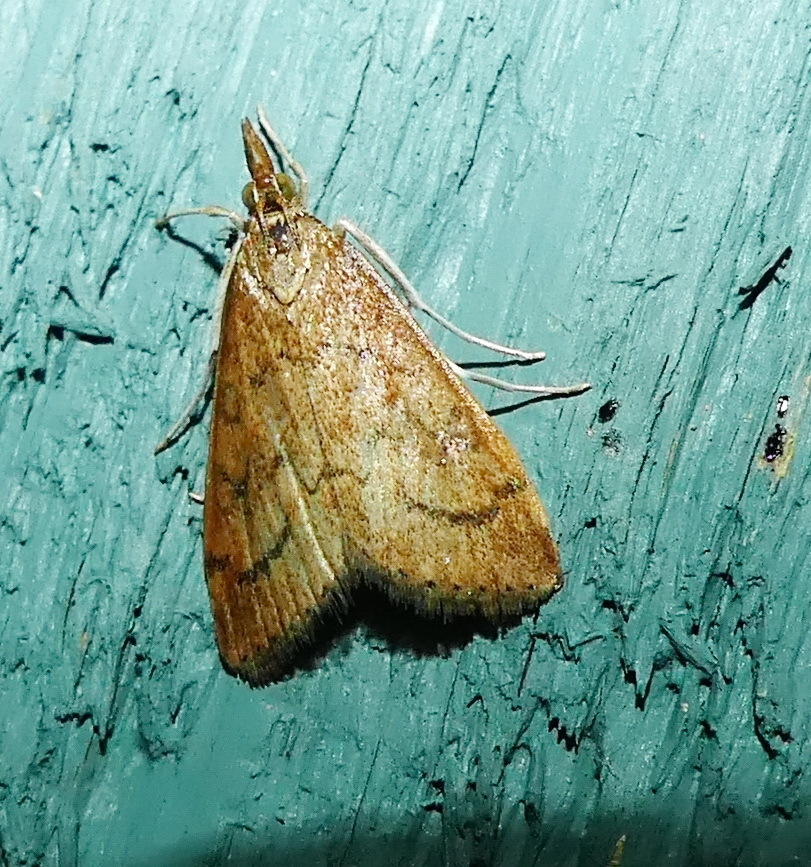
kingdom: Animalia
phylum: Arthropoda
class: Insecta
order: Lepidoptera
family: Crambidae
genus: Udea
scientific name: Udea rubigalis
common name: Celery leaftier moth
